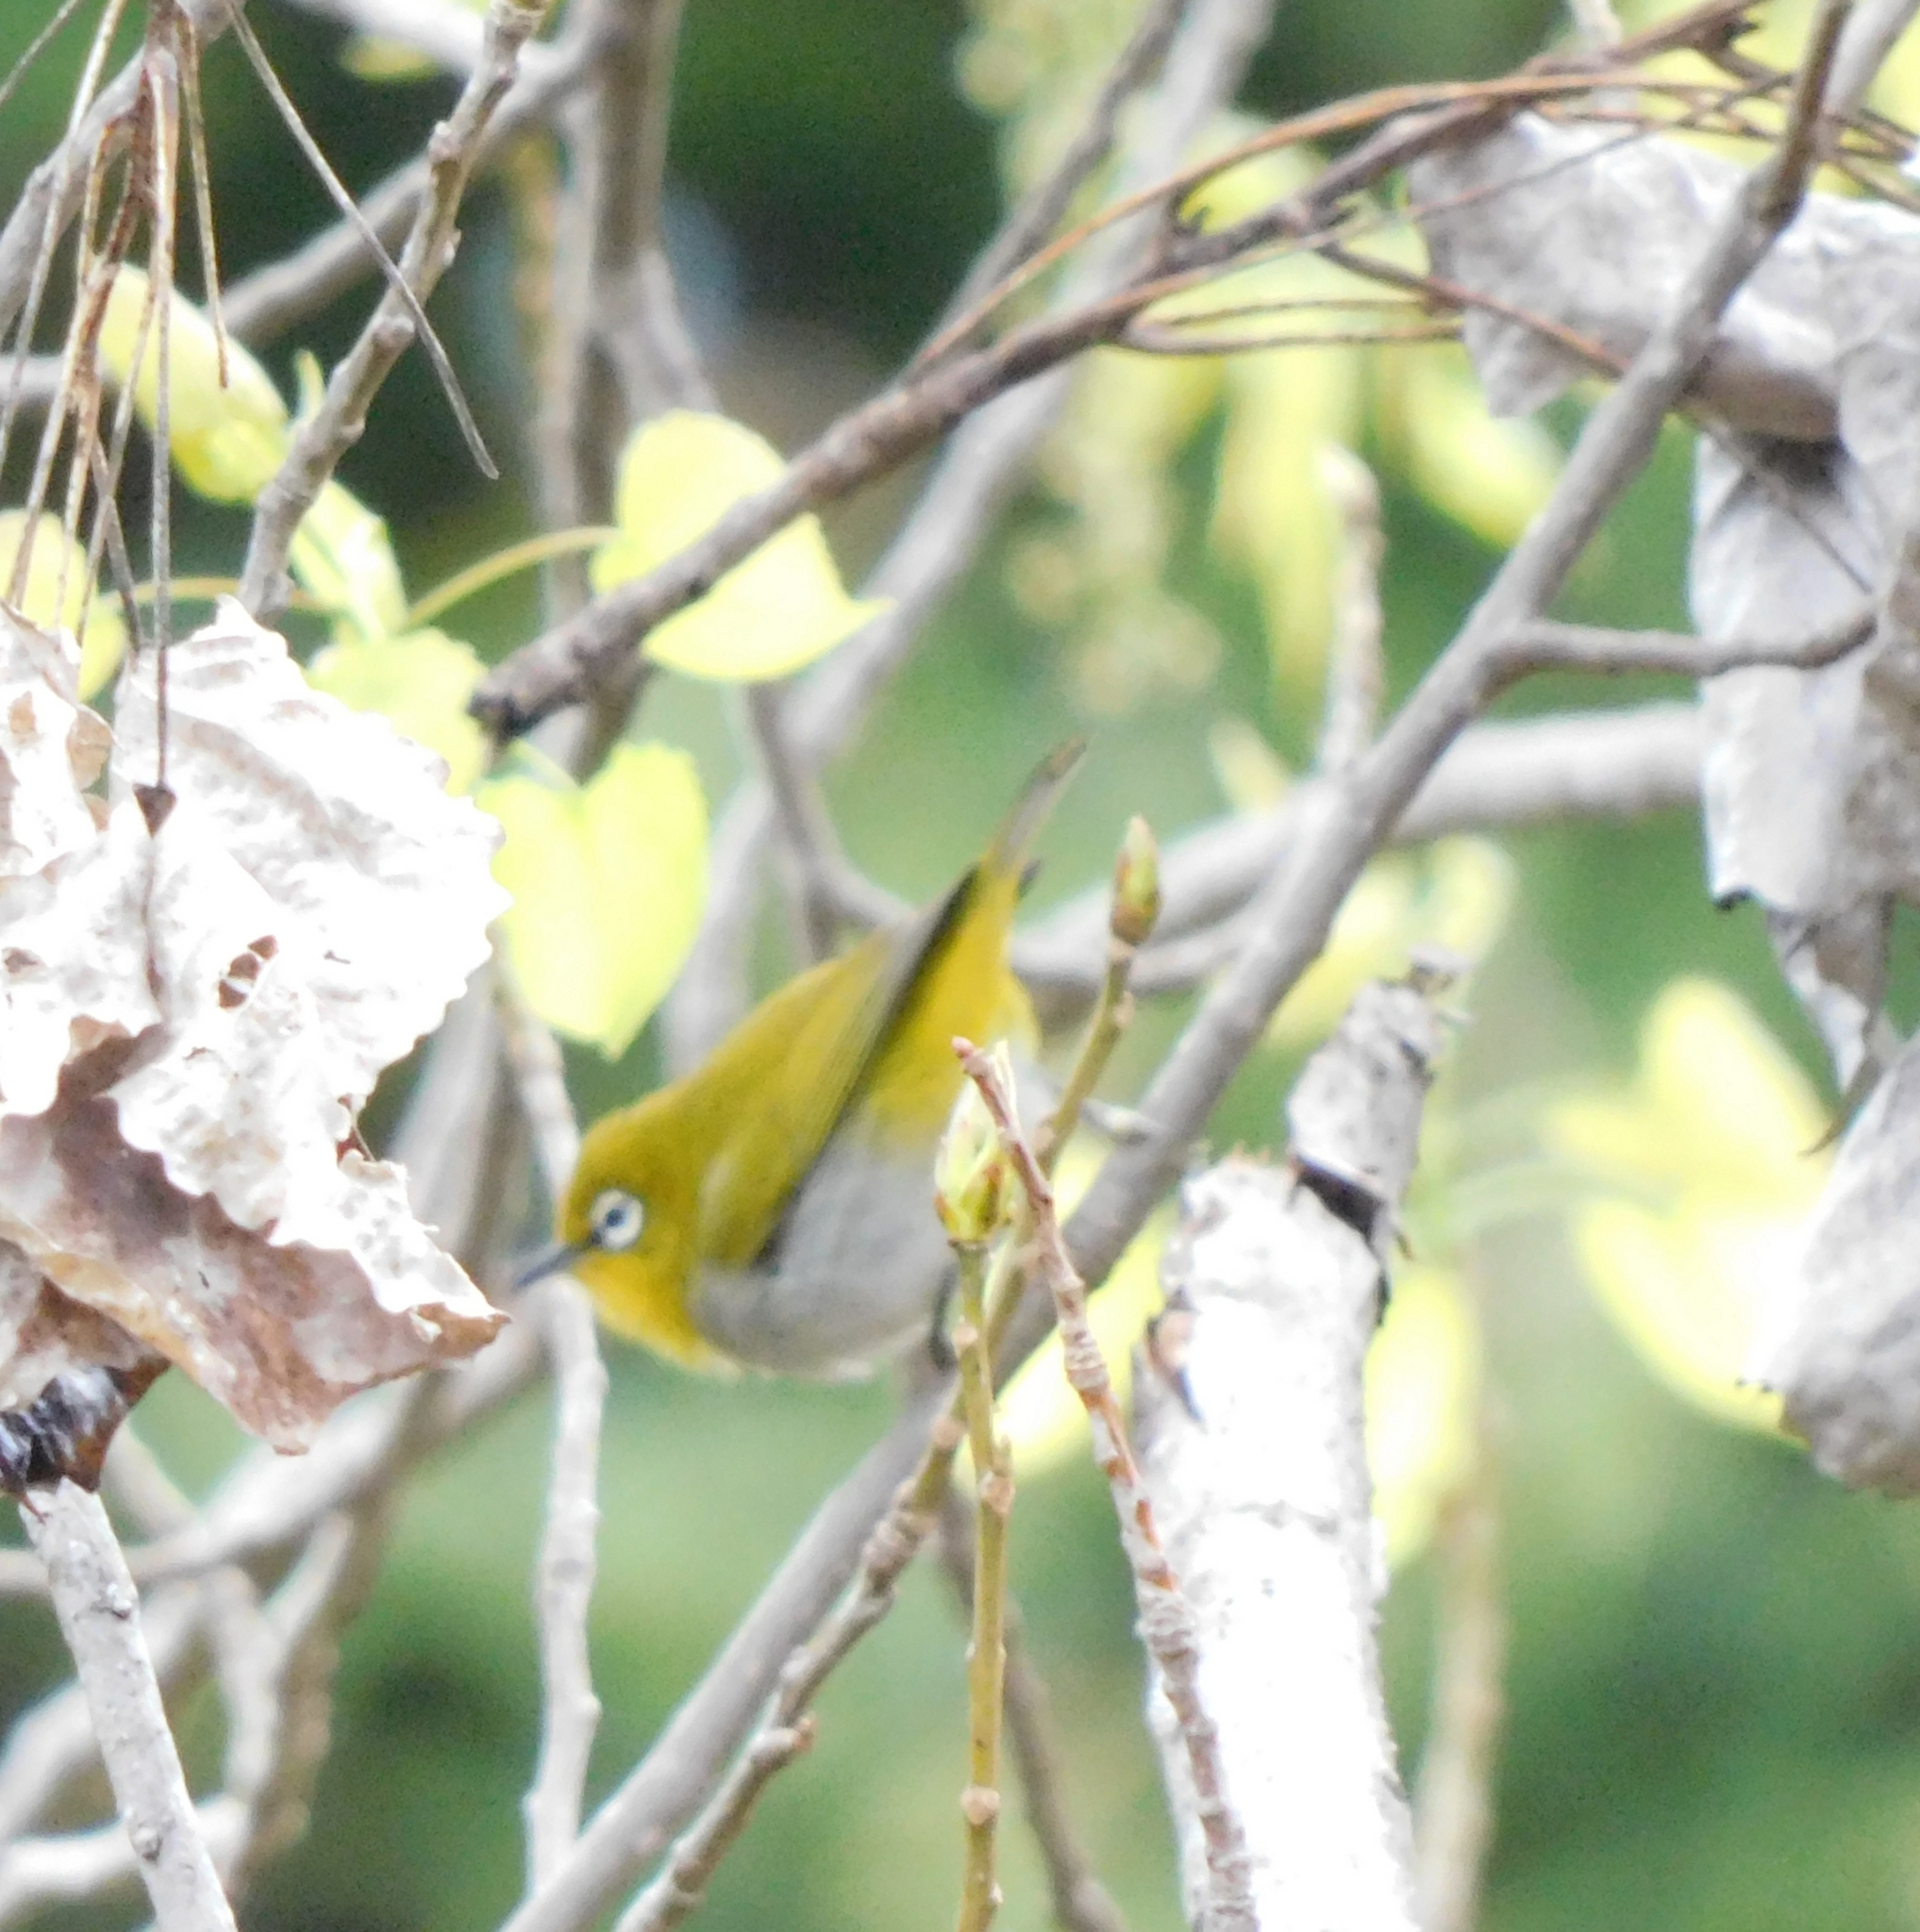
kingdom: Animalia
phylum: Chordata
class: Aves
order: Passeriformes
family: Zosteropidae
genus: Zosterops
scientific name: Zosterops palpebrosus
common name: Oriental white-eye
